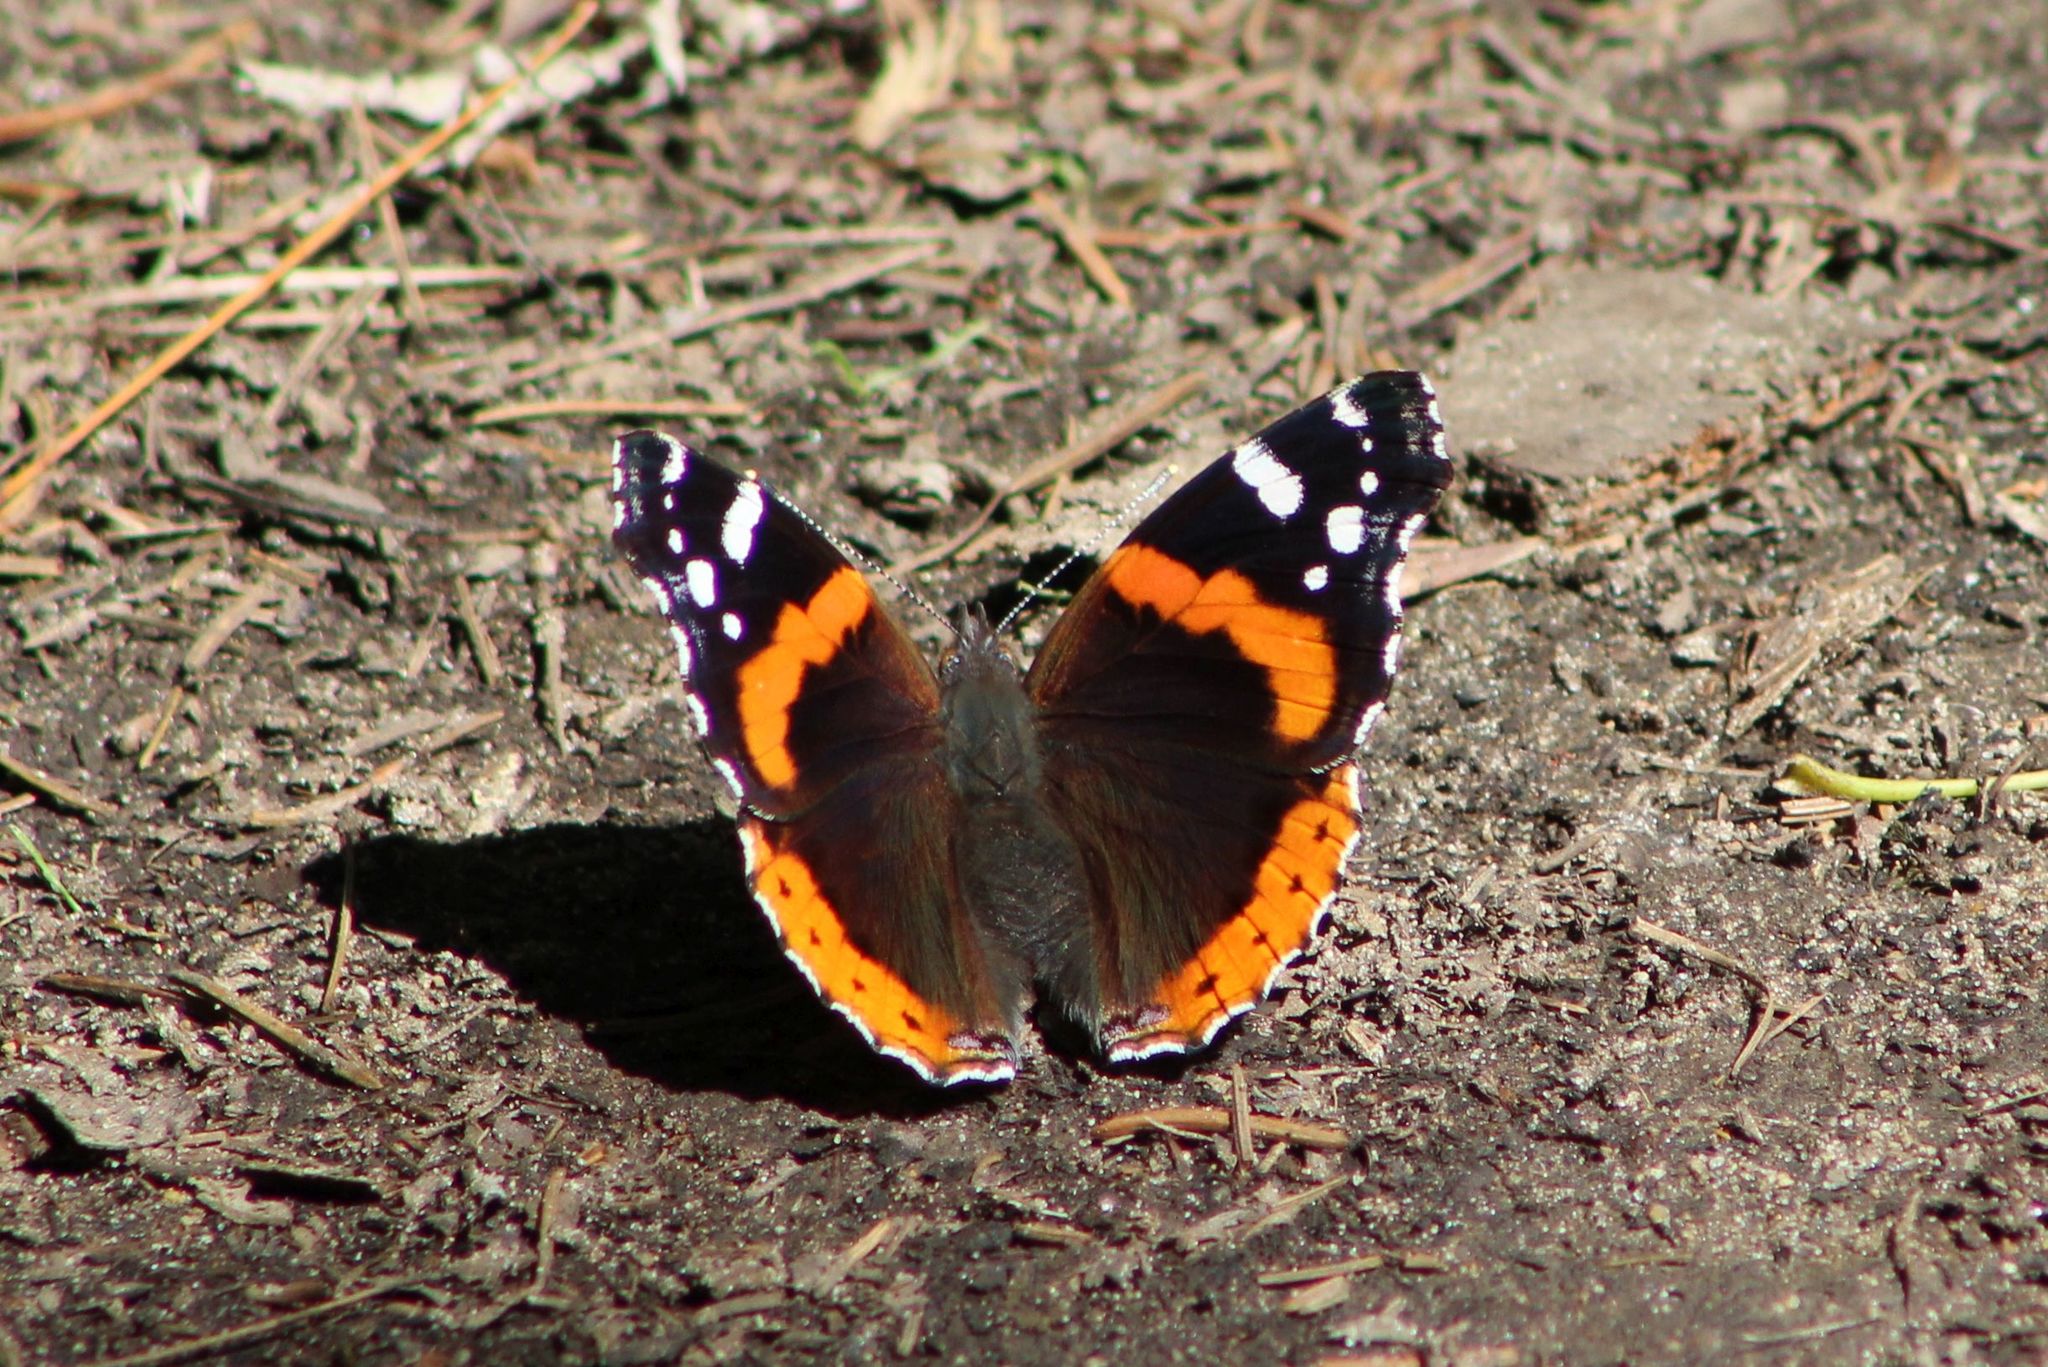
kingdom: Animalia
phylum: Arthropoda
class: Insecta
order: Lepidoptera
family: Nymphalidae
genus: Vanessa
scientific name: Vanessa atalanta
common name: Red admiral
